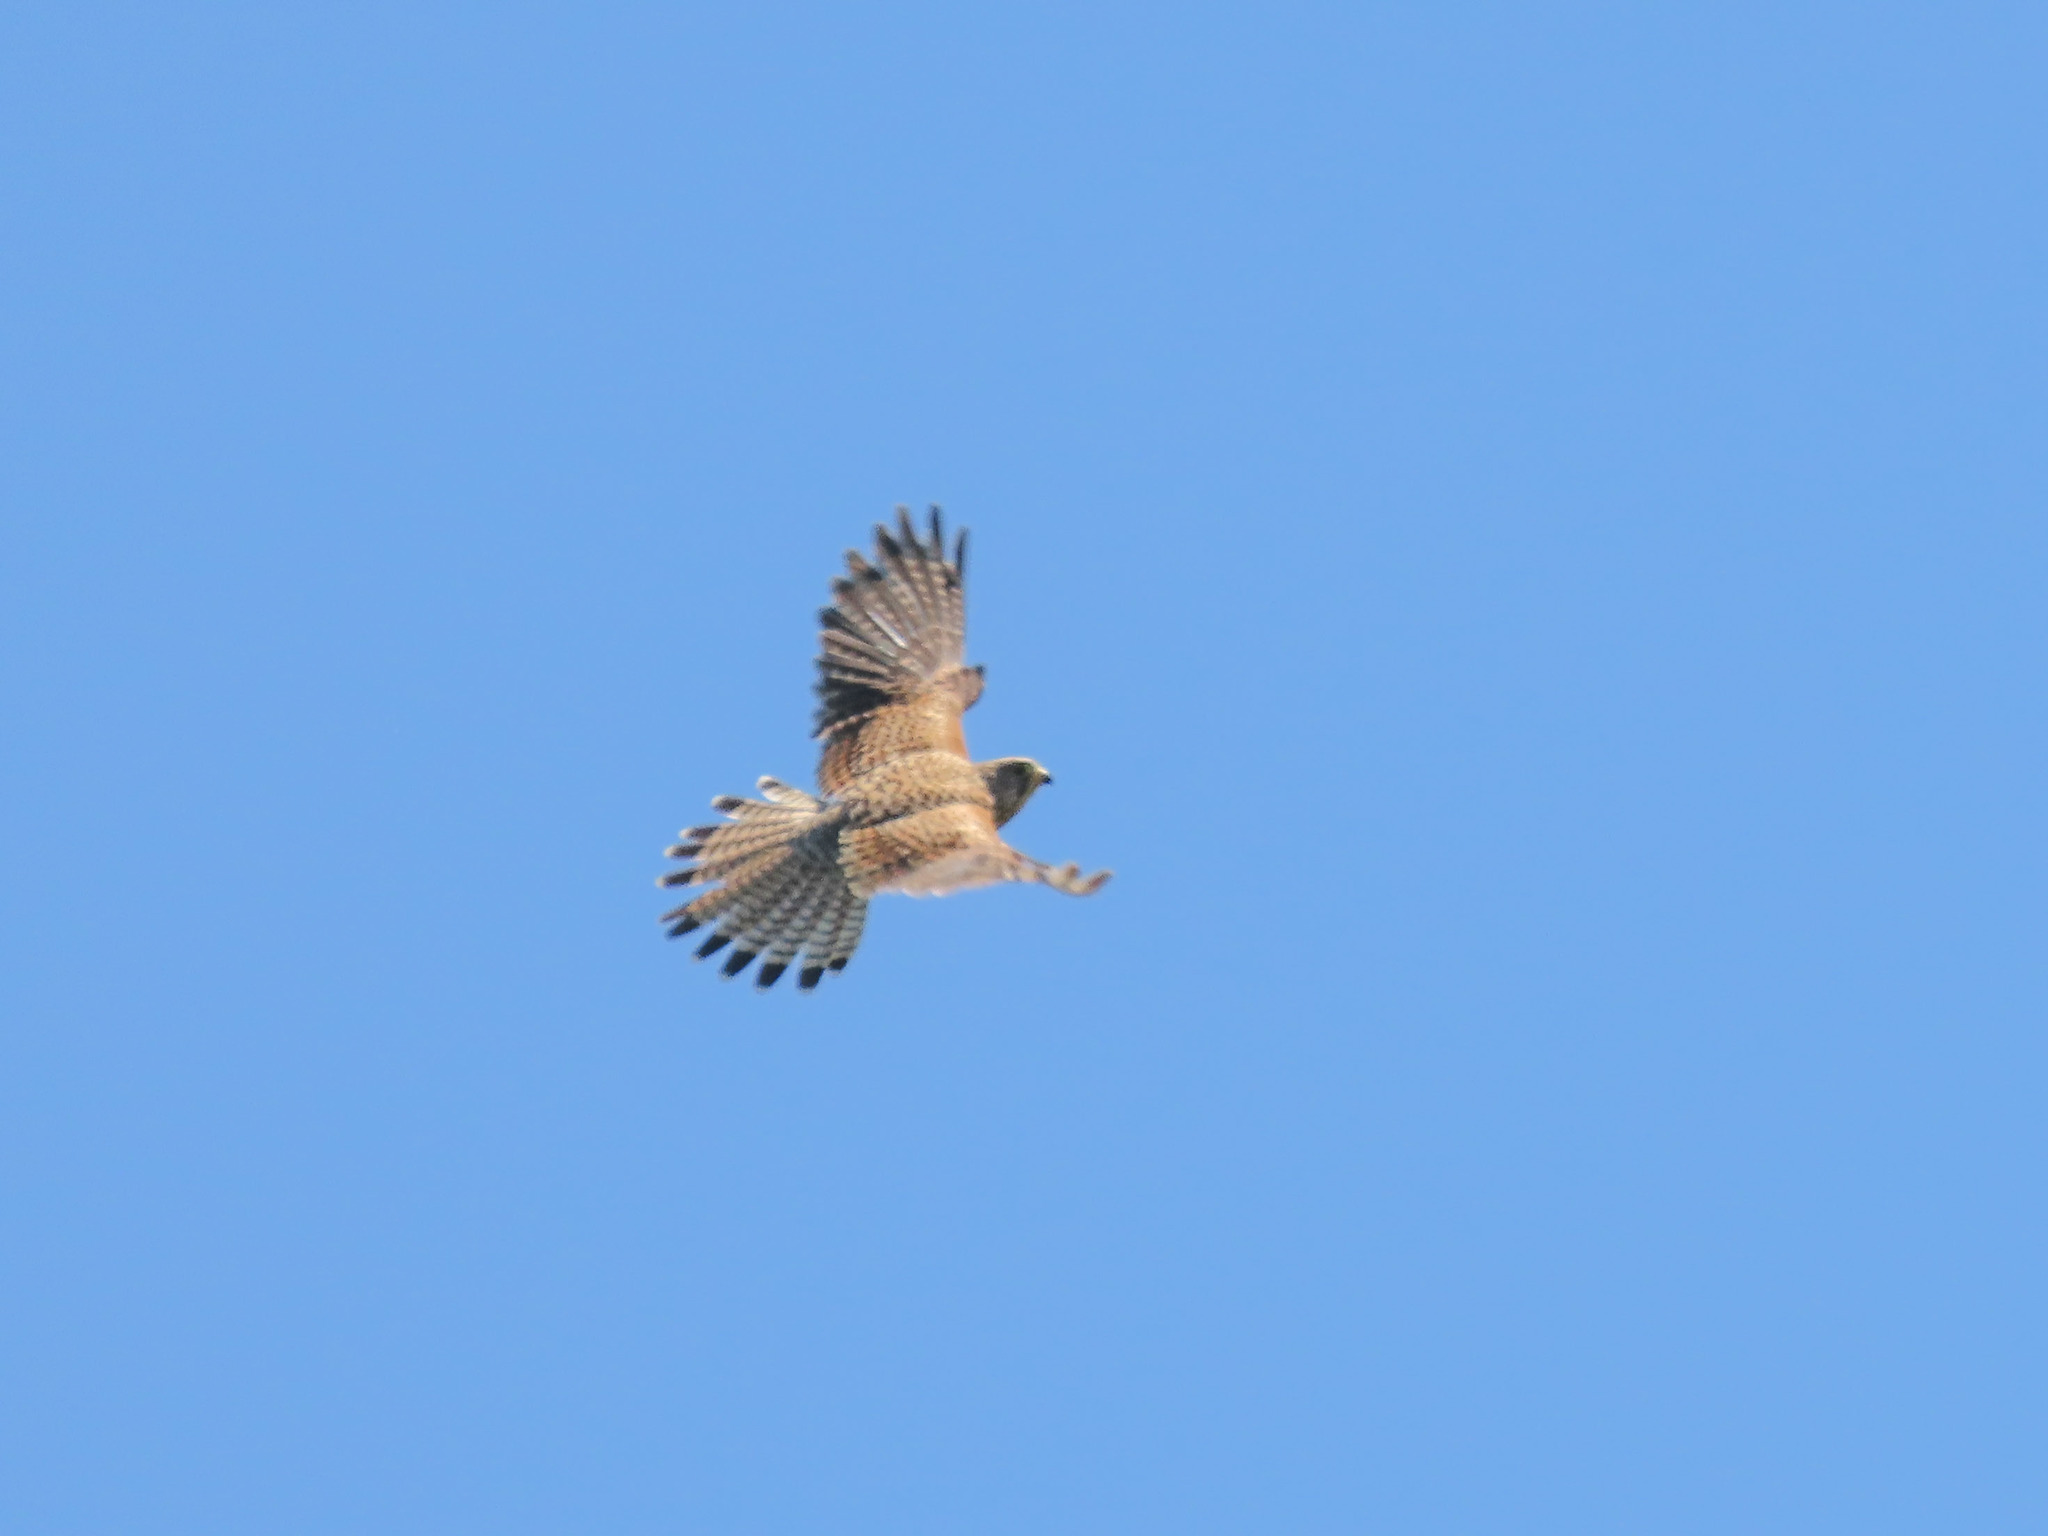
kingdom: Animalia
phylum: Chordata
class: Aves
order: Falconiformes
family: Falconidae
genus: Falco
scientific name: Falco tinnunculus
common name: Common kestrel
